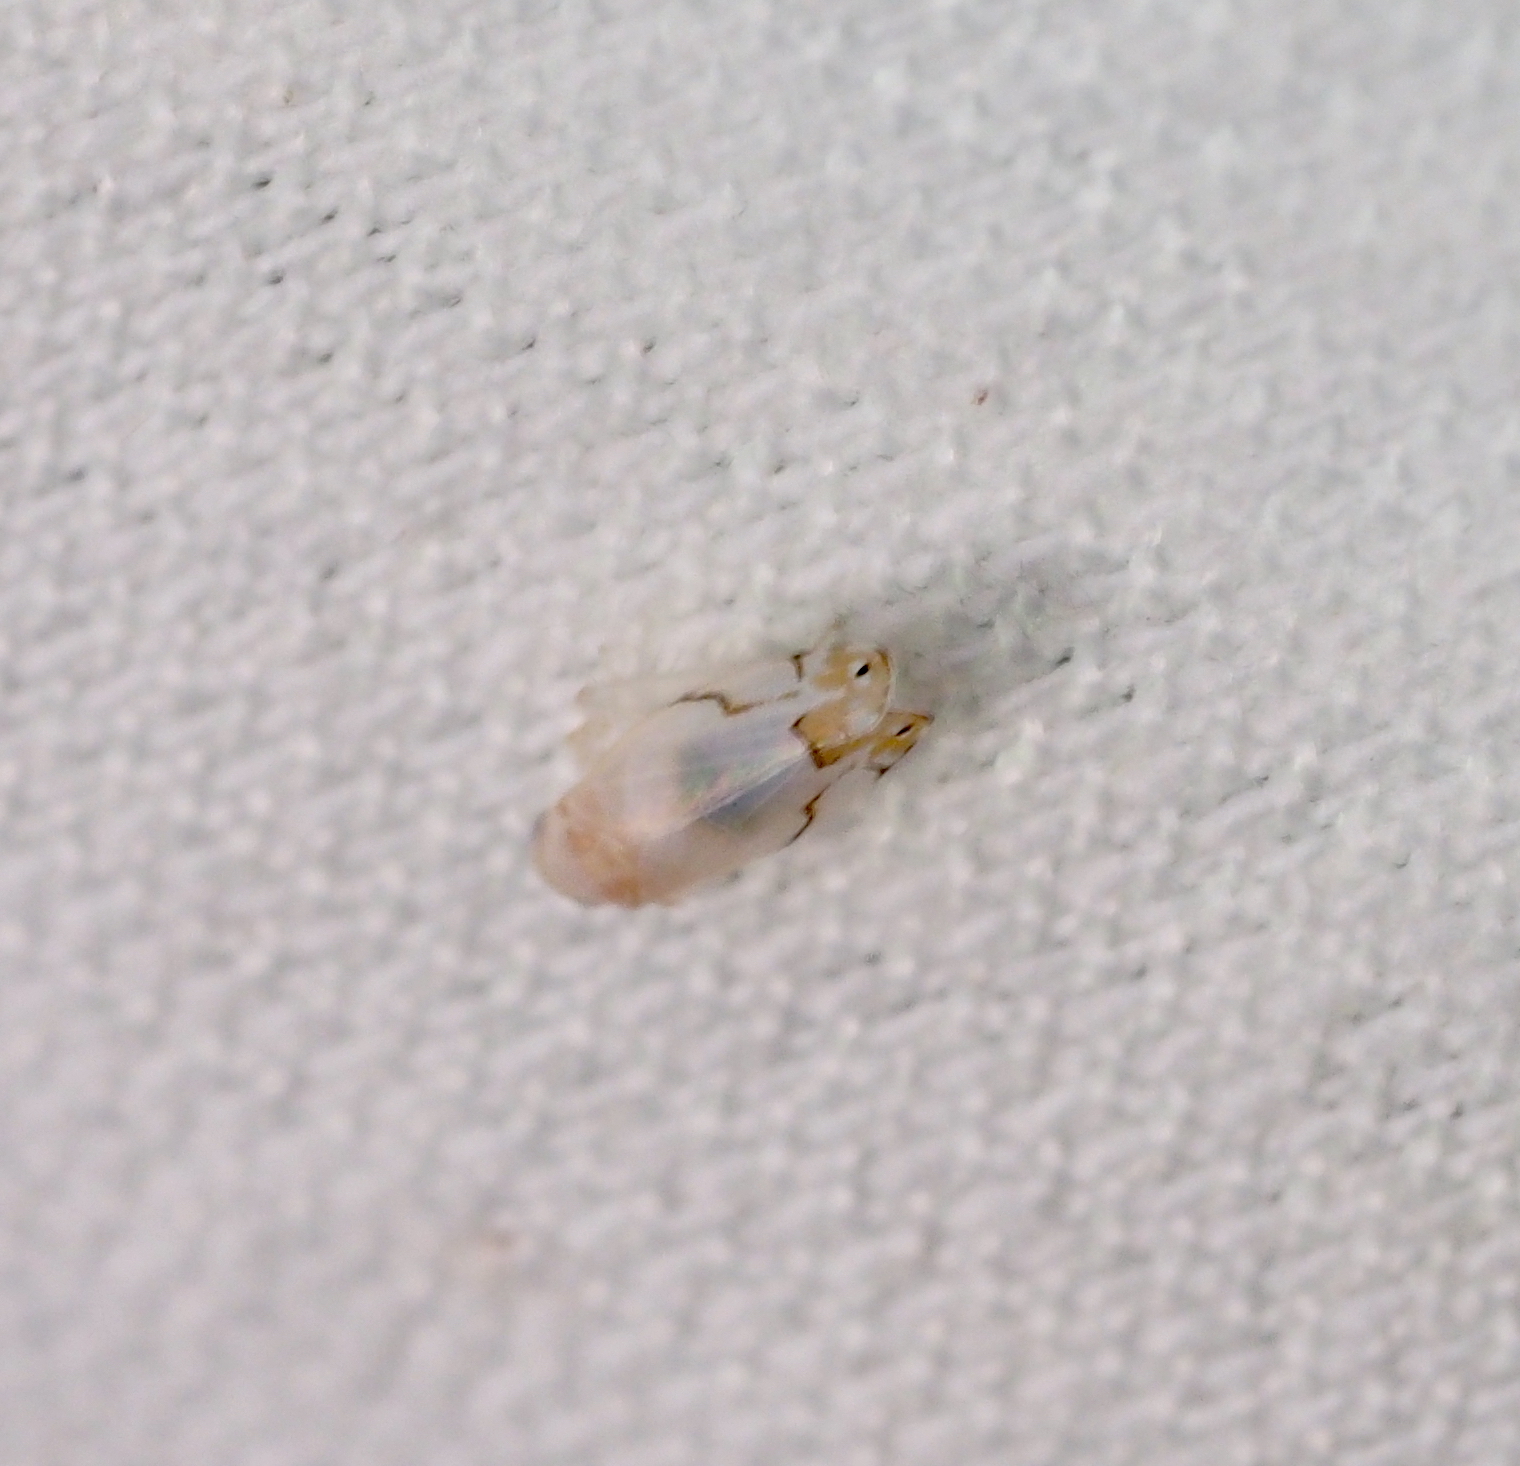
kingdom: Animalia
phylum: Arthropoda
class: Insecta
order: Hemiptera
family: Cicadellidae
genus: Eurhadina
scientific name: Eurhadina kirschbaumi
